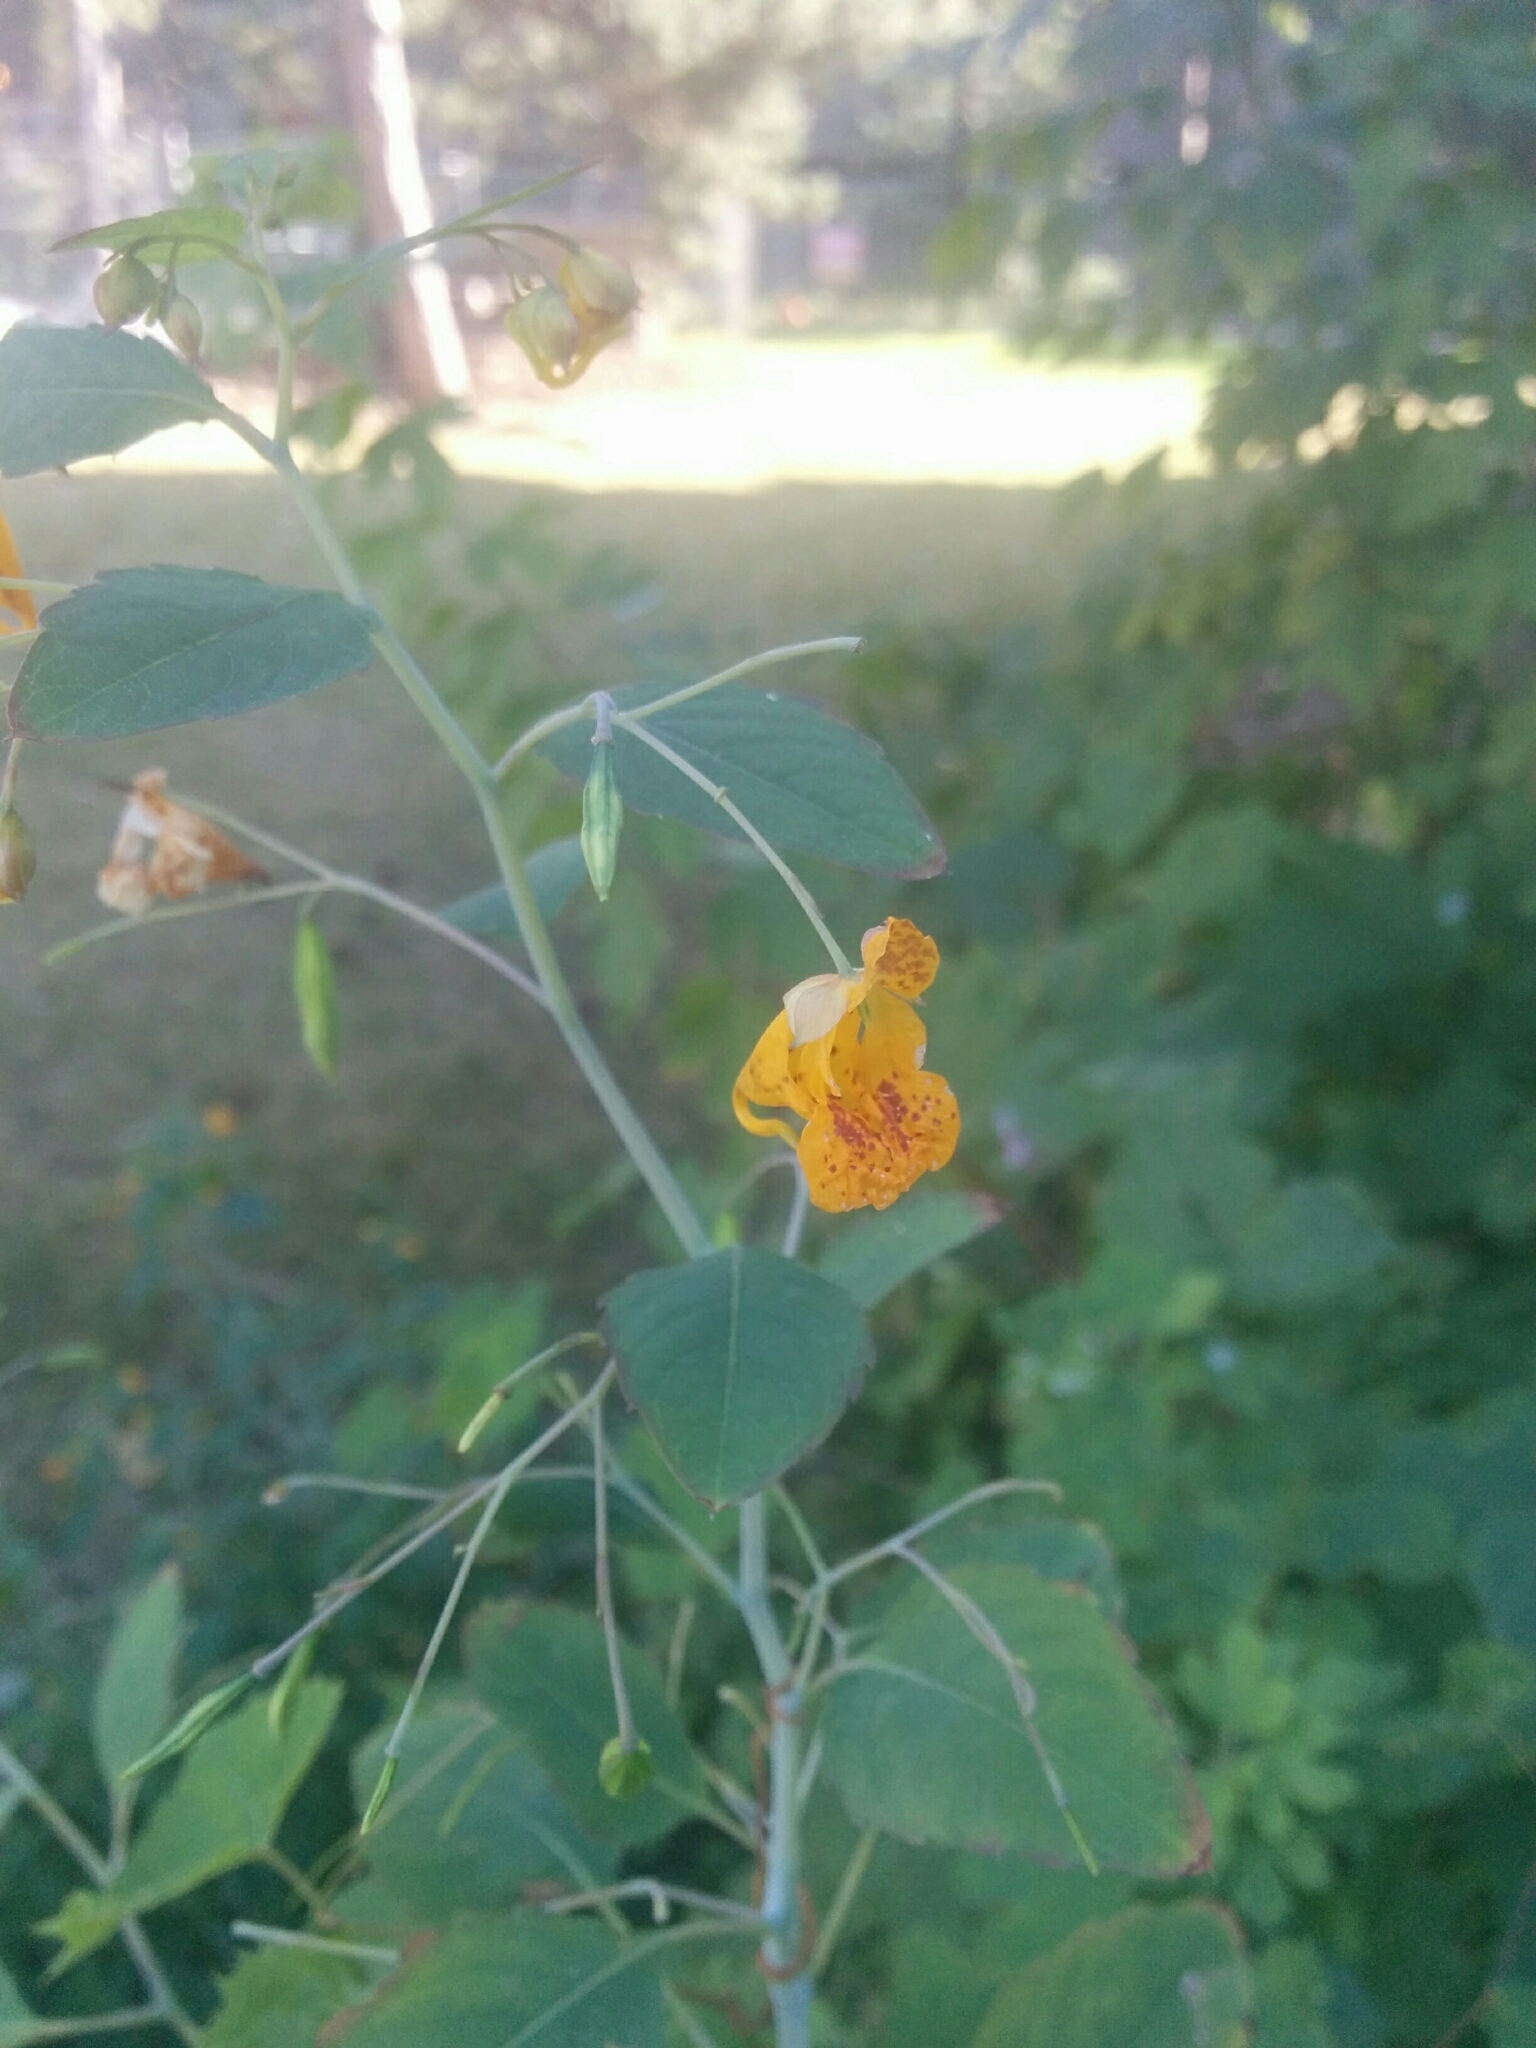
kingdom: Plantae
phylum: Tracheophyta
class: Magnoliopsida
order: Ericales
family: Balsaminaceae
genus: Impatiens
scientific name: Impatiens capensis
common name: Orange balsam
